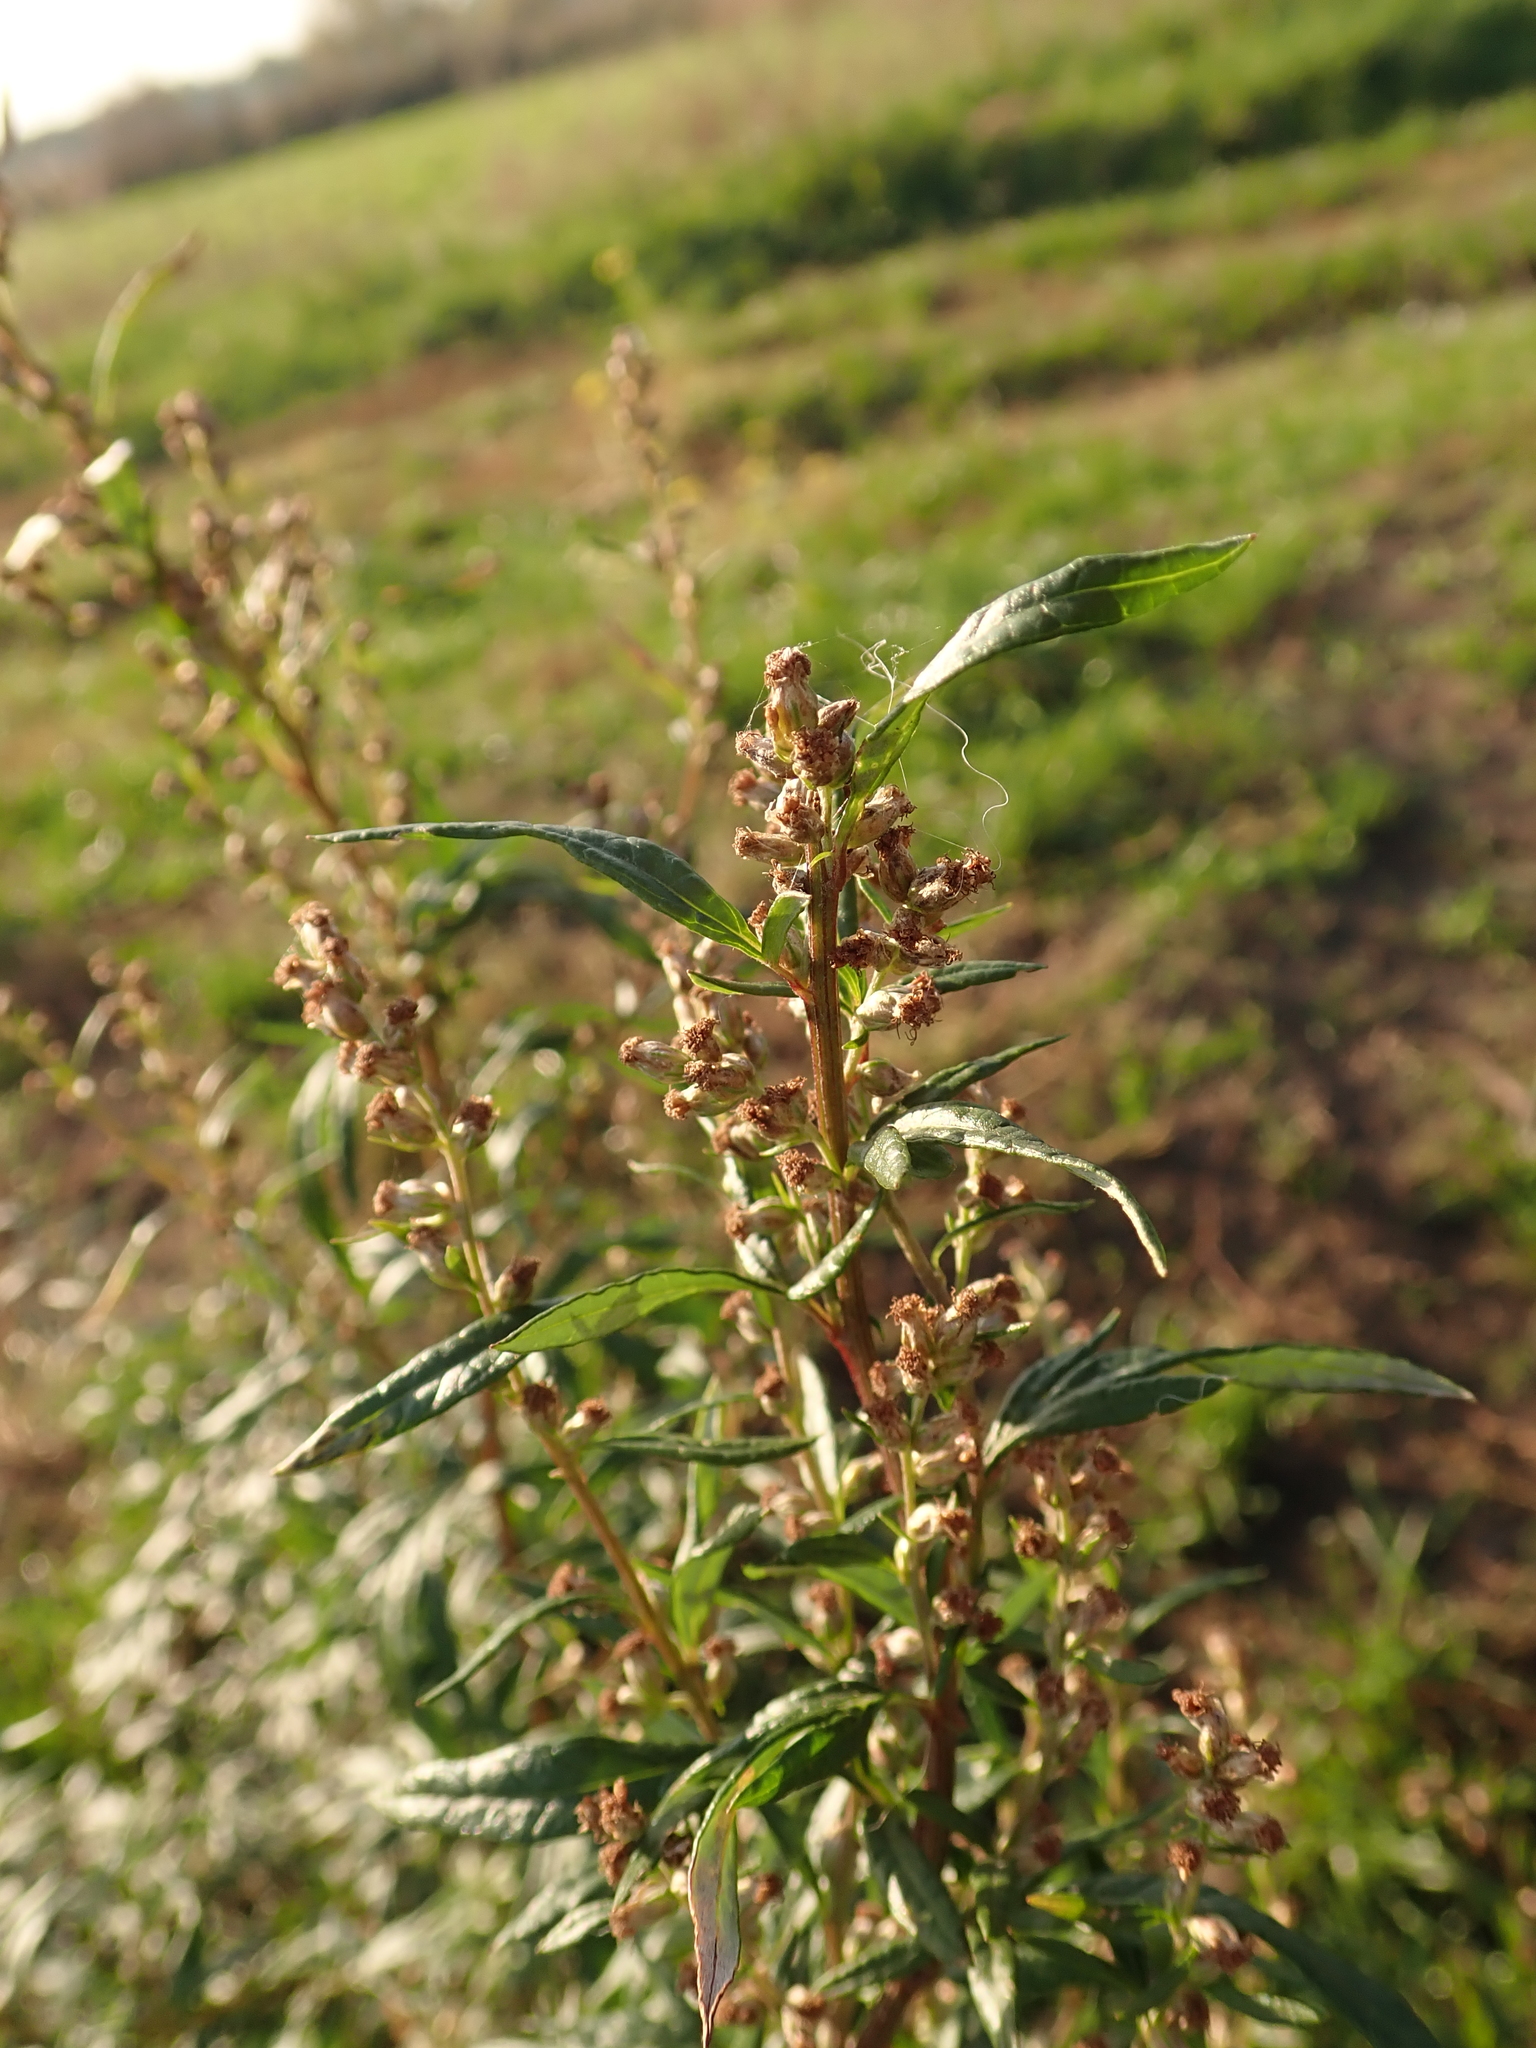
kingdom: Plantae
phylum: Tracheophyta
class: Magnoliopsida
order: Asterales
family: Asteraceae
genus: Artemisia
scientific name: Artemisia vulgaris
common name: Mugwort
